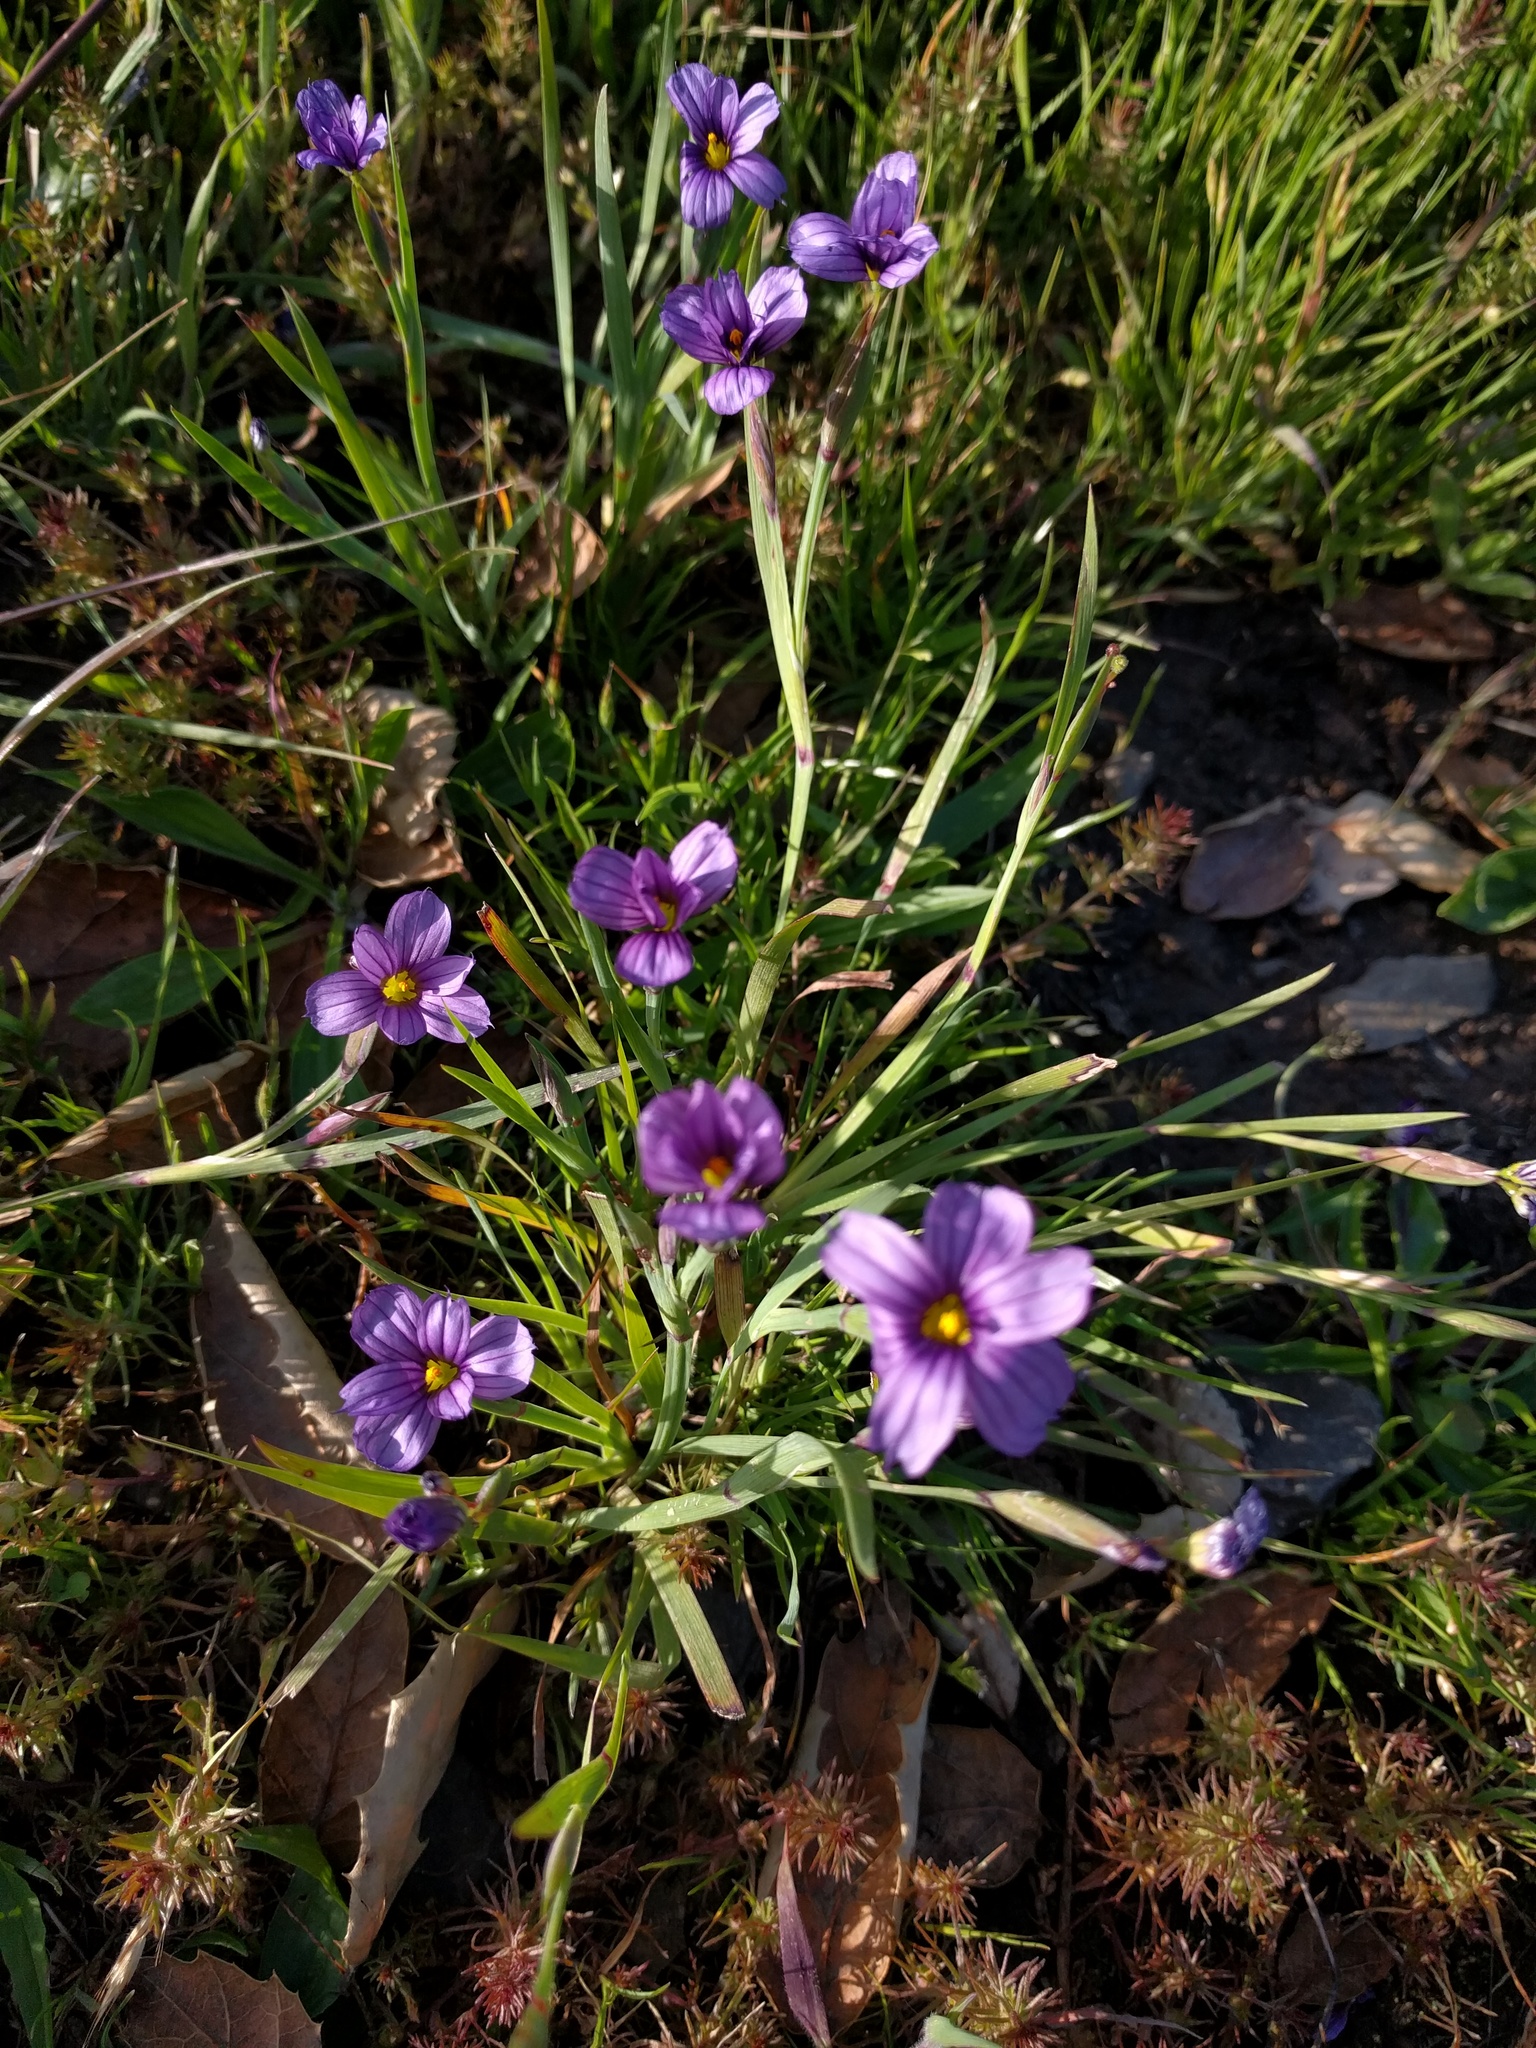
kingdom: Plantae
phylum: Tracheophyta
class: Liliopsida
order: Asparagales
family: Iridaceae
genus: Sisyrinchium
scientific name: Sisyrinchium bellum
